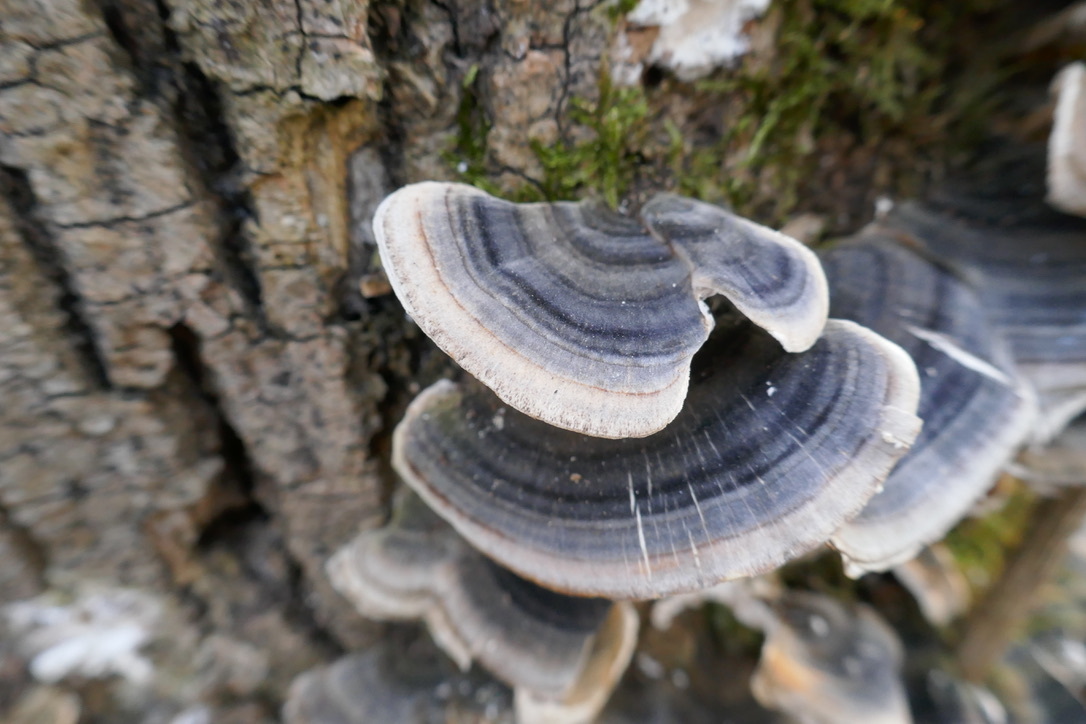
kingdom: Fungi
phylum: Basidiomycota
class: Agaricomycetes
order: Polyporales
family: Polyporaceae
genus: Trametes
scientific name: Trametes versicolor
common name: Turkeytail
